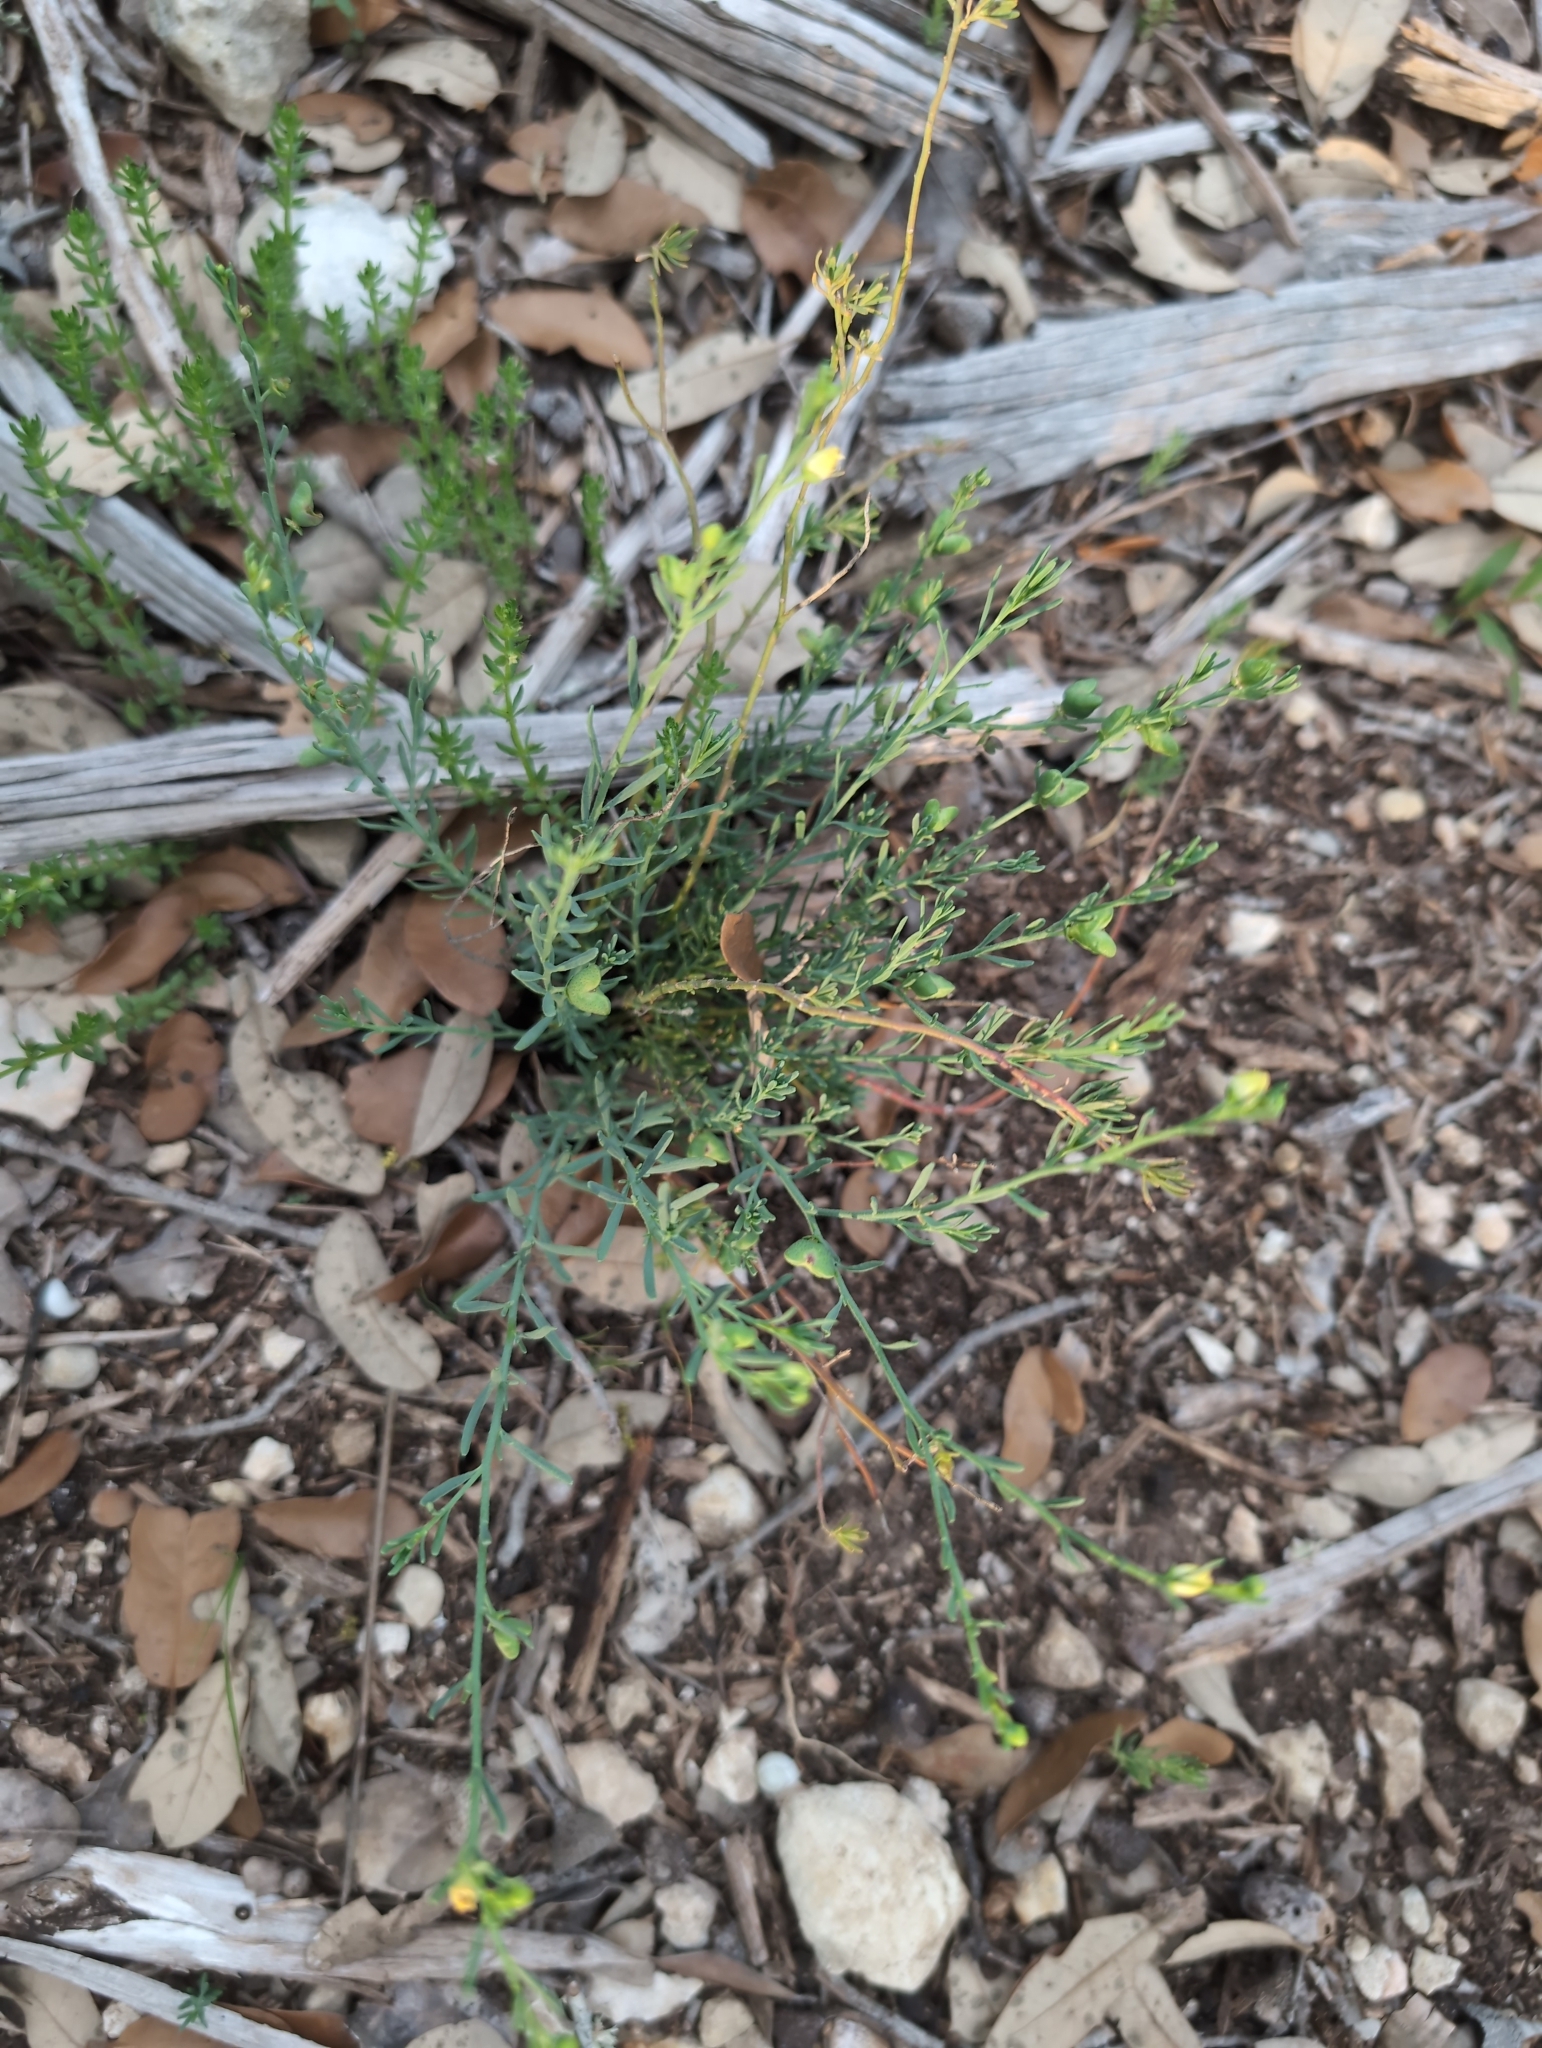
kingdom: Plantae
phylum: Tracheophyta
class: Magnoliopsida
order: Sapindales
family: Rutaceae
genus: Thamnosma
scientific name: Thamnosma texana
